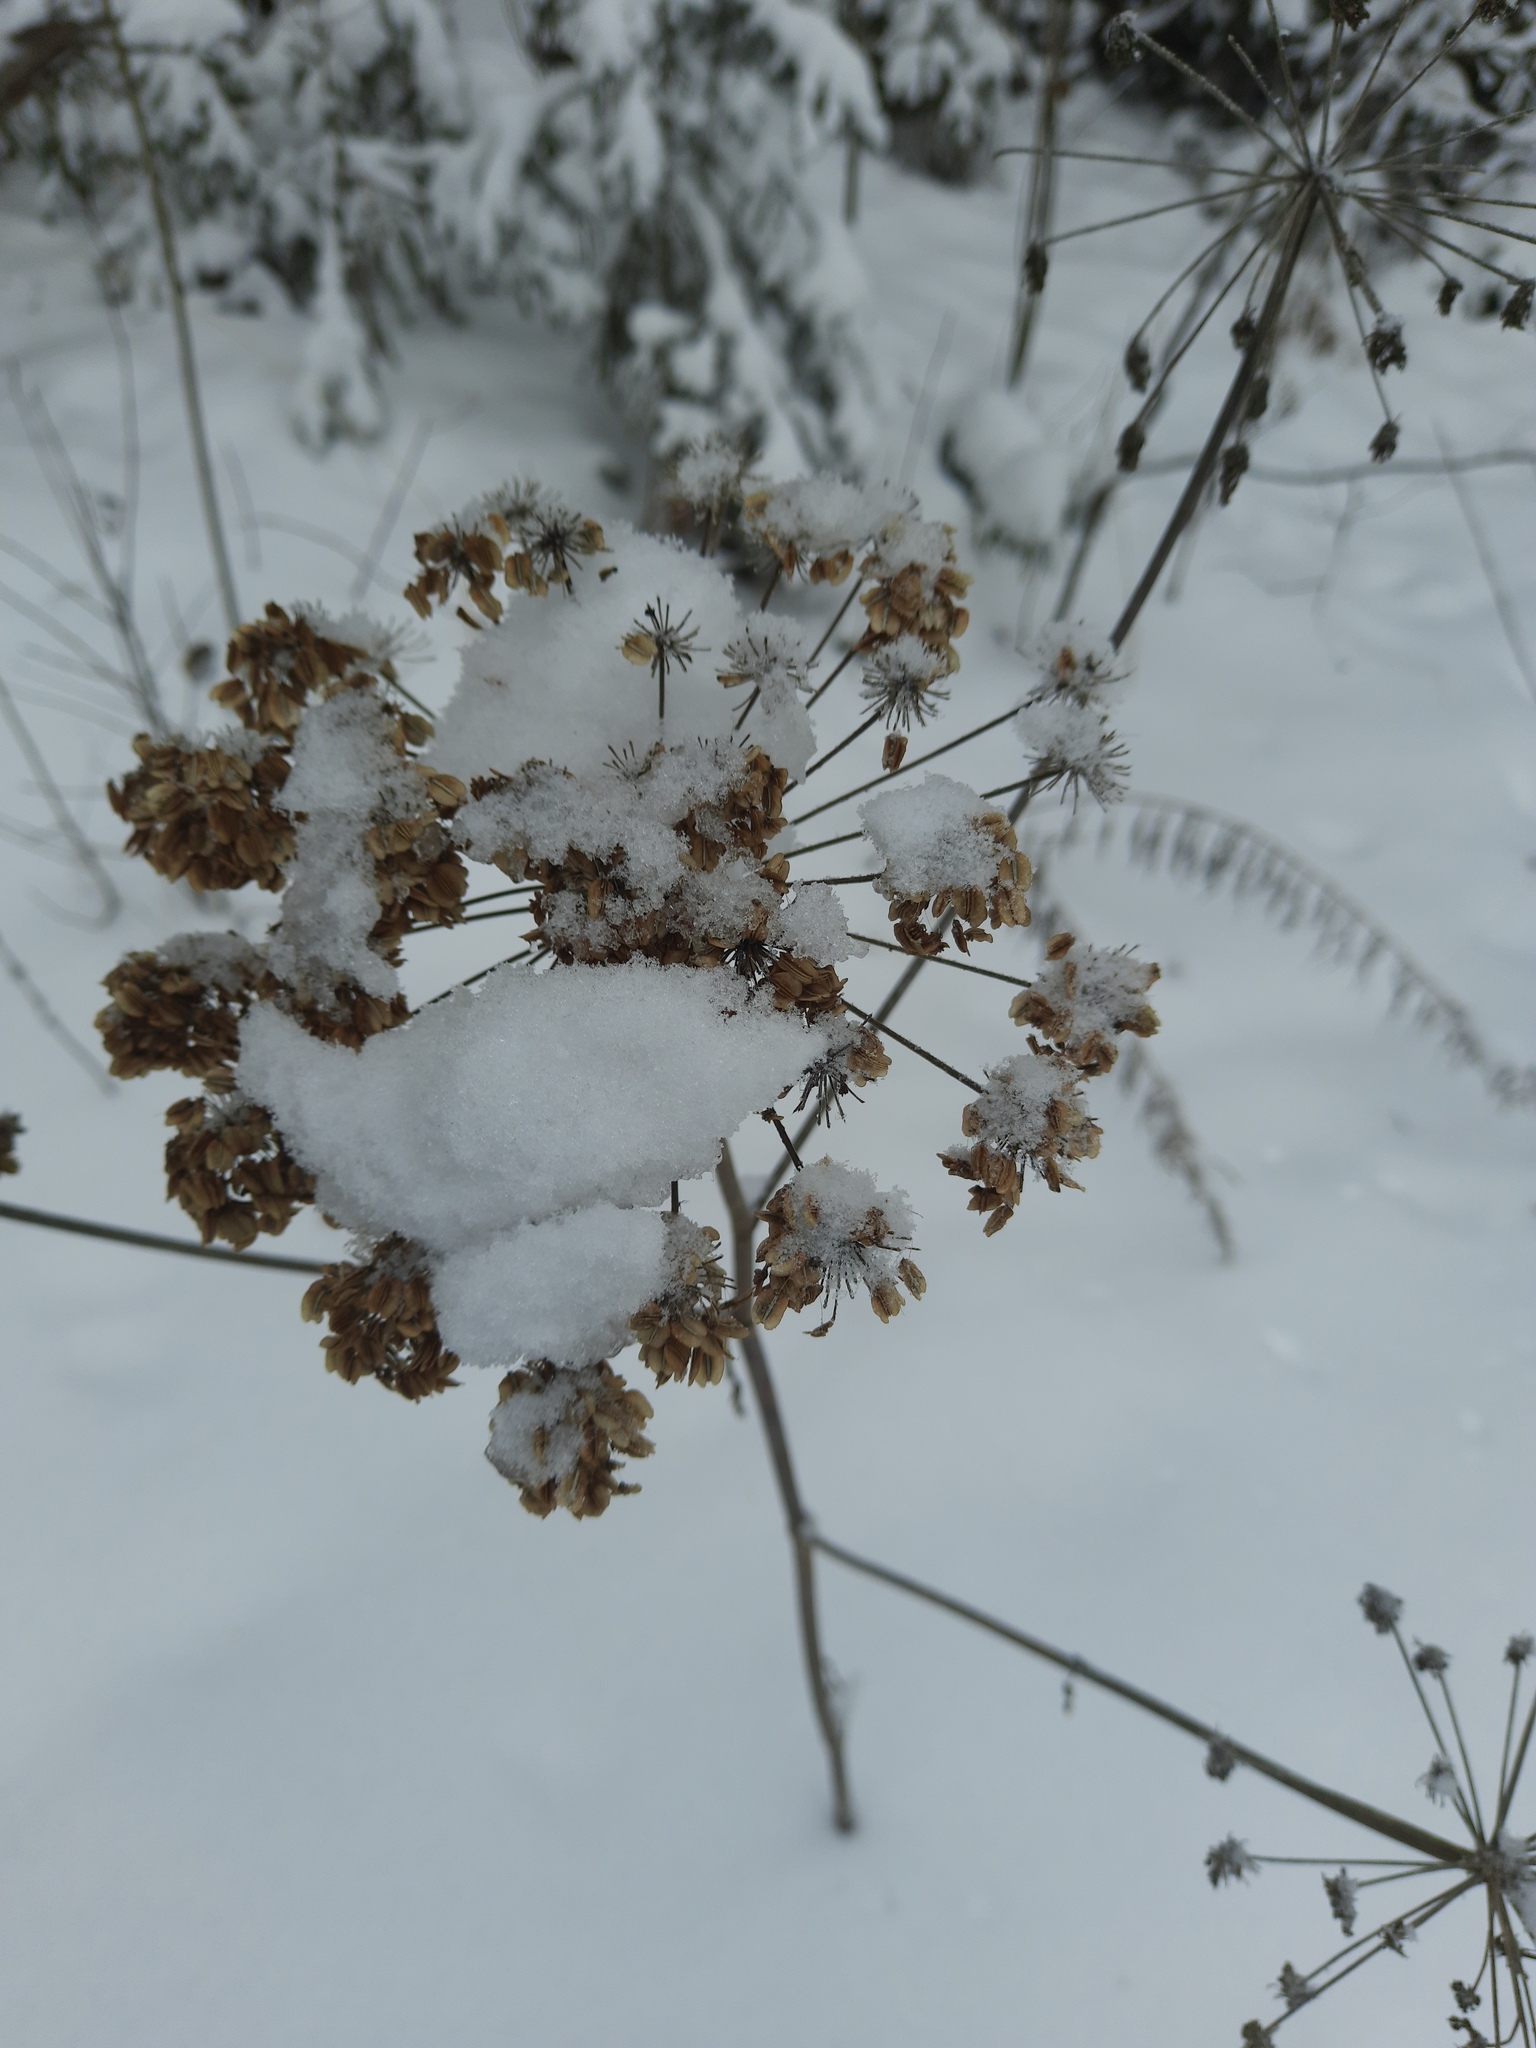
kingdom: Plantae
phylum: Tracheophyta
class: Magnoliopsida
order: Apiales
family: Apiaceae
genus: Angelica
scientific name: Angelica decurrens
